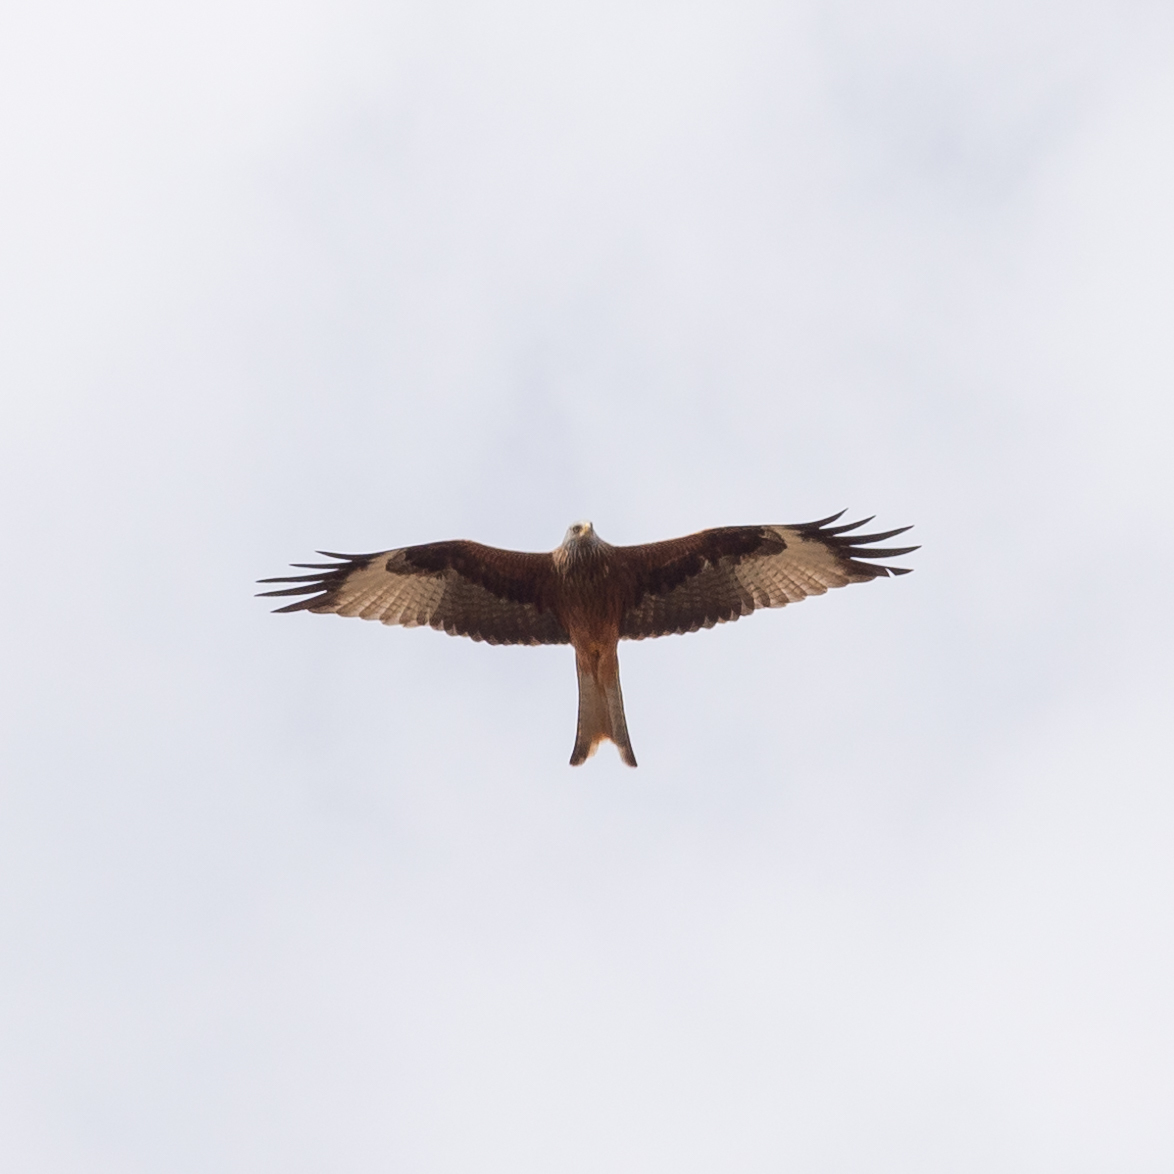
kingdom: Animalia
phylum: Chordata
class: Aves
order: Accipitriformes
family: Accipitridae
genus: Milvus
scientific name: Milvus milvus
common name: Red kite
